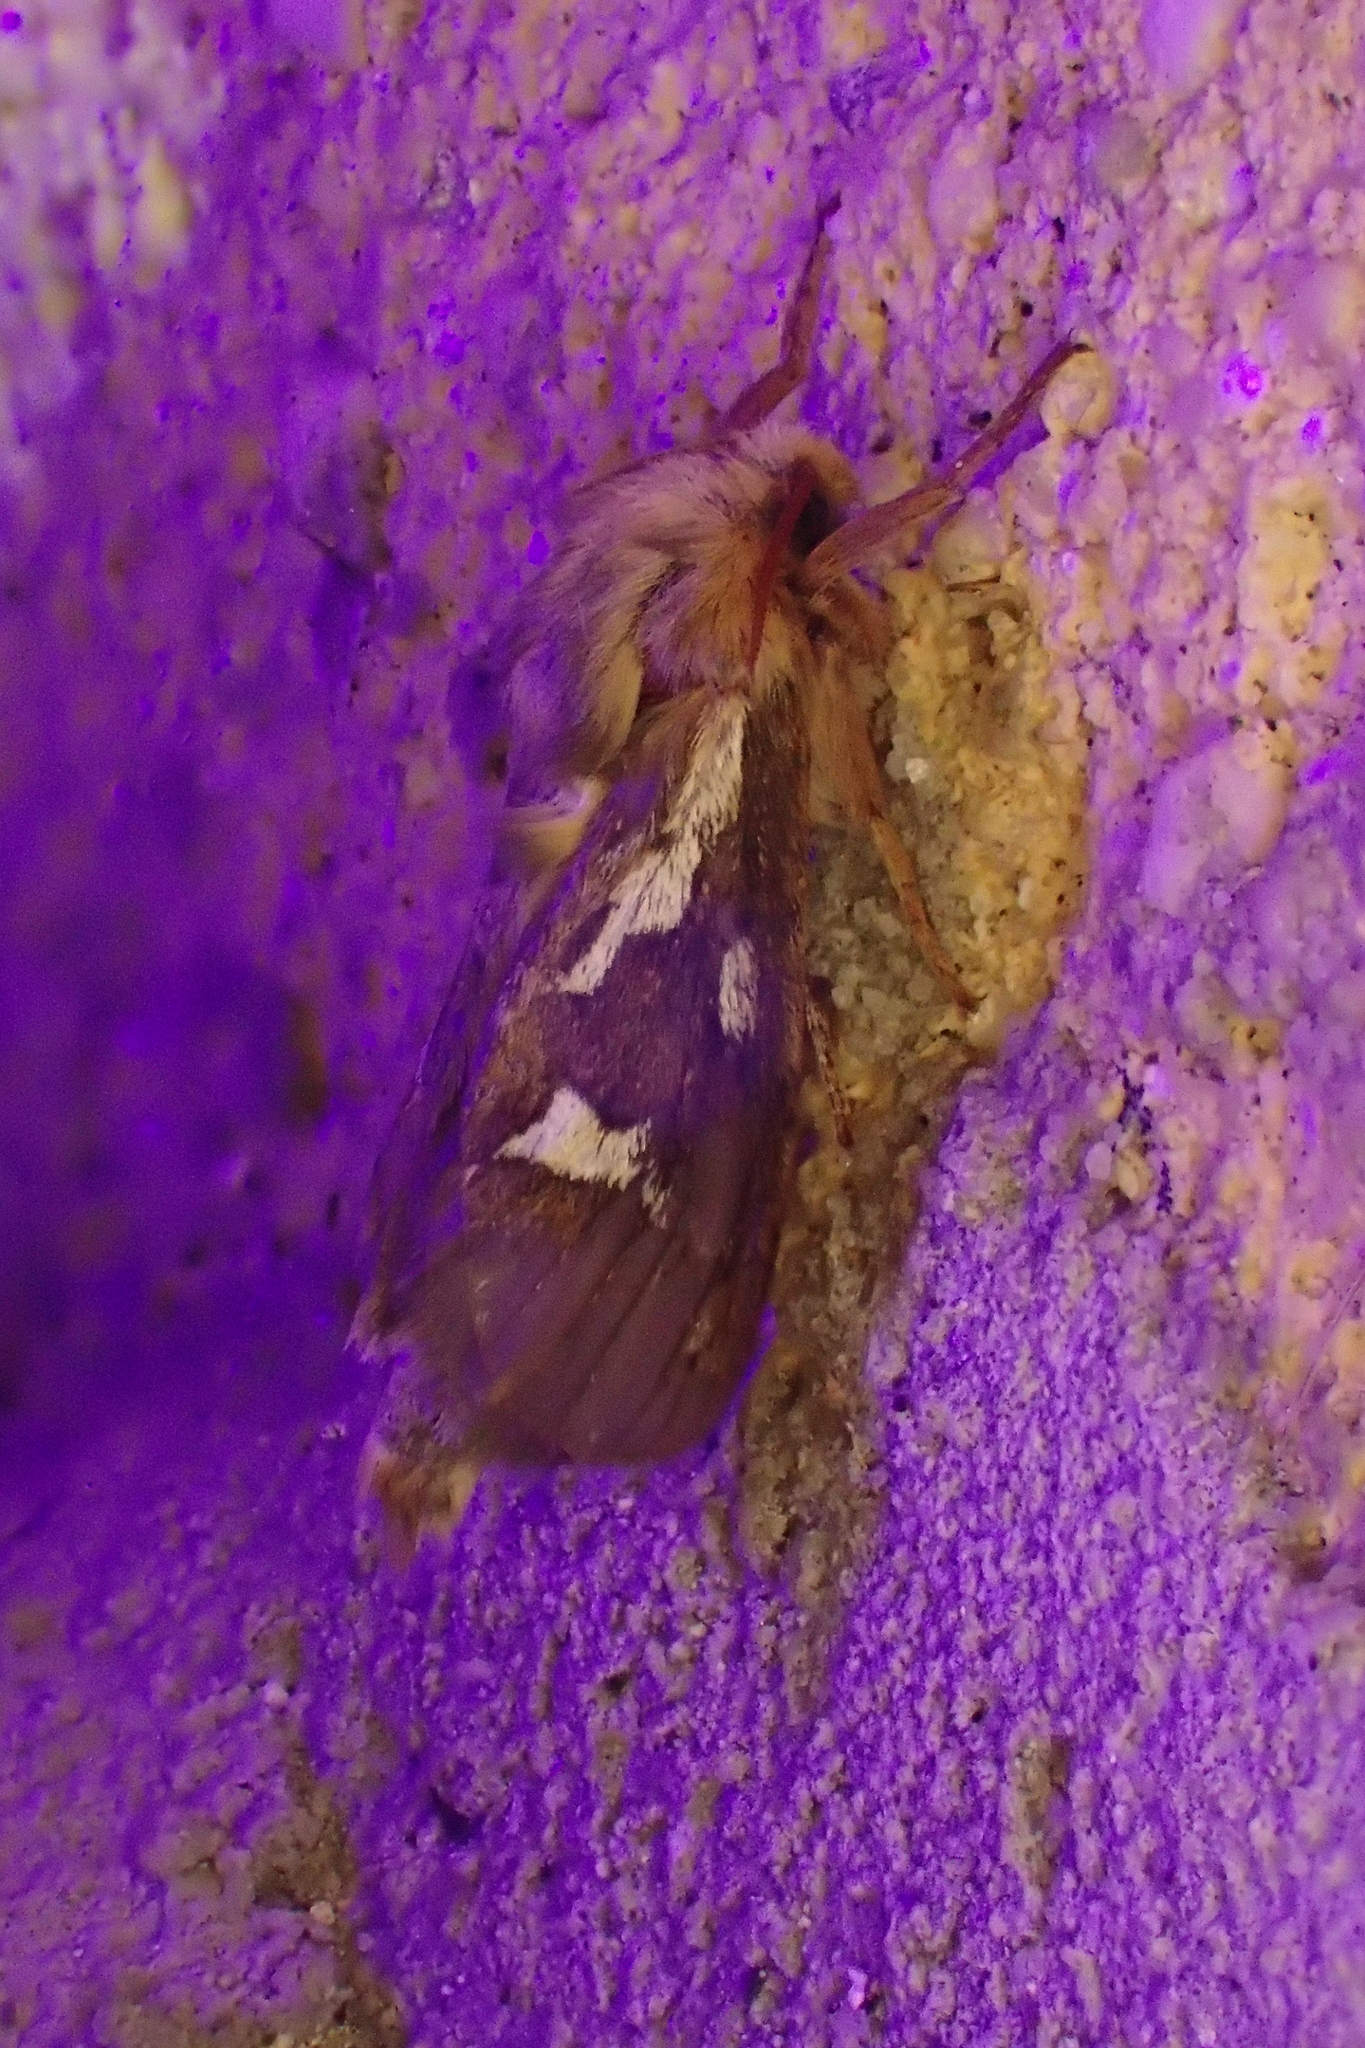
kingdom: Animalia
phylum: Arthropoda
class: Insecta
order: Lepidoptera
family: Hepialidae
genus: Korscheltellus
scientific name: Korscheltellus lupulina
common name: Common swift
